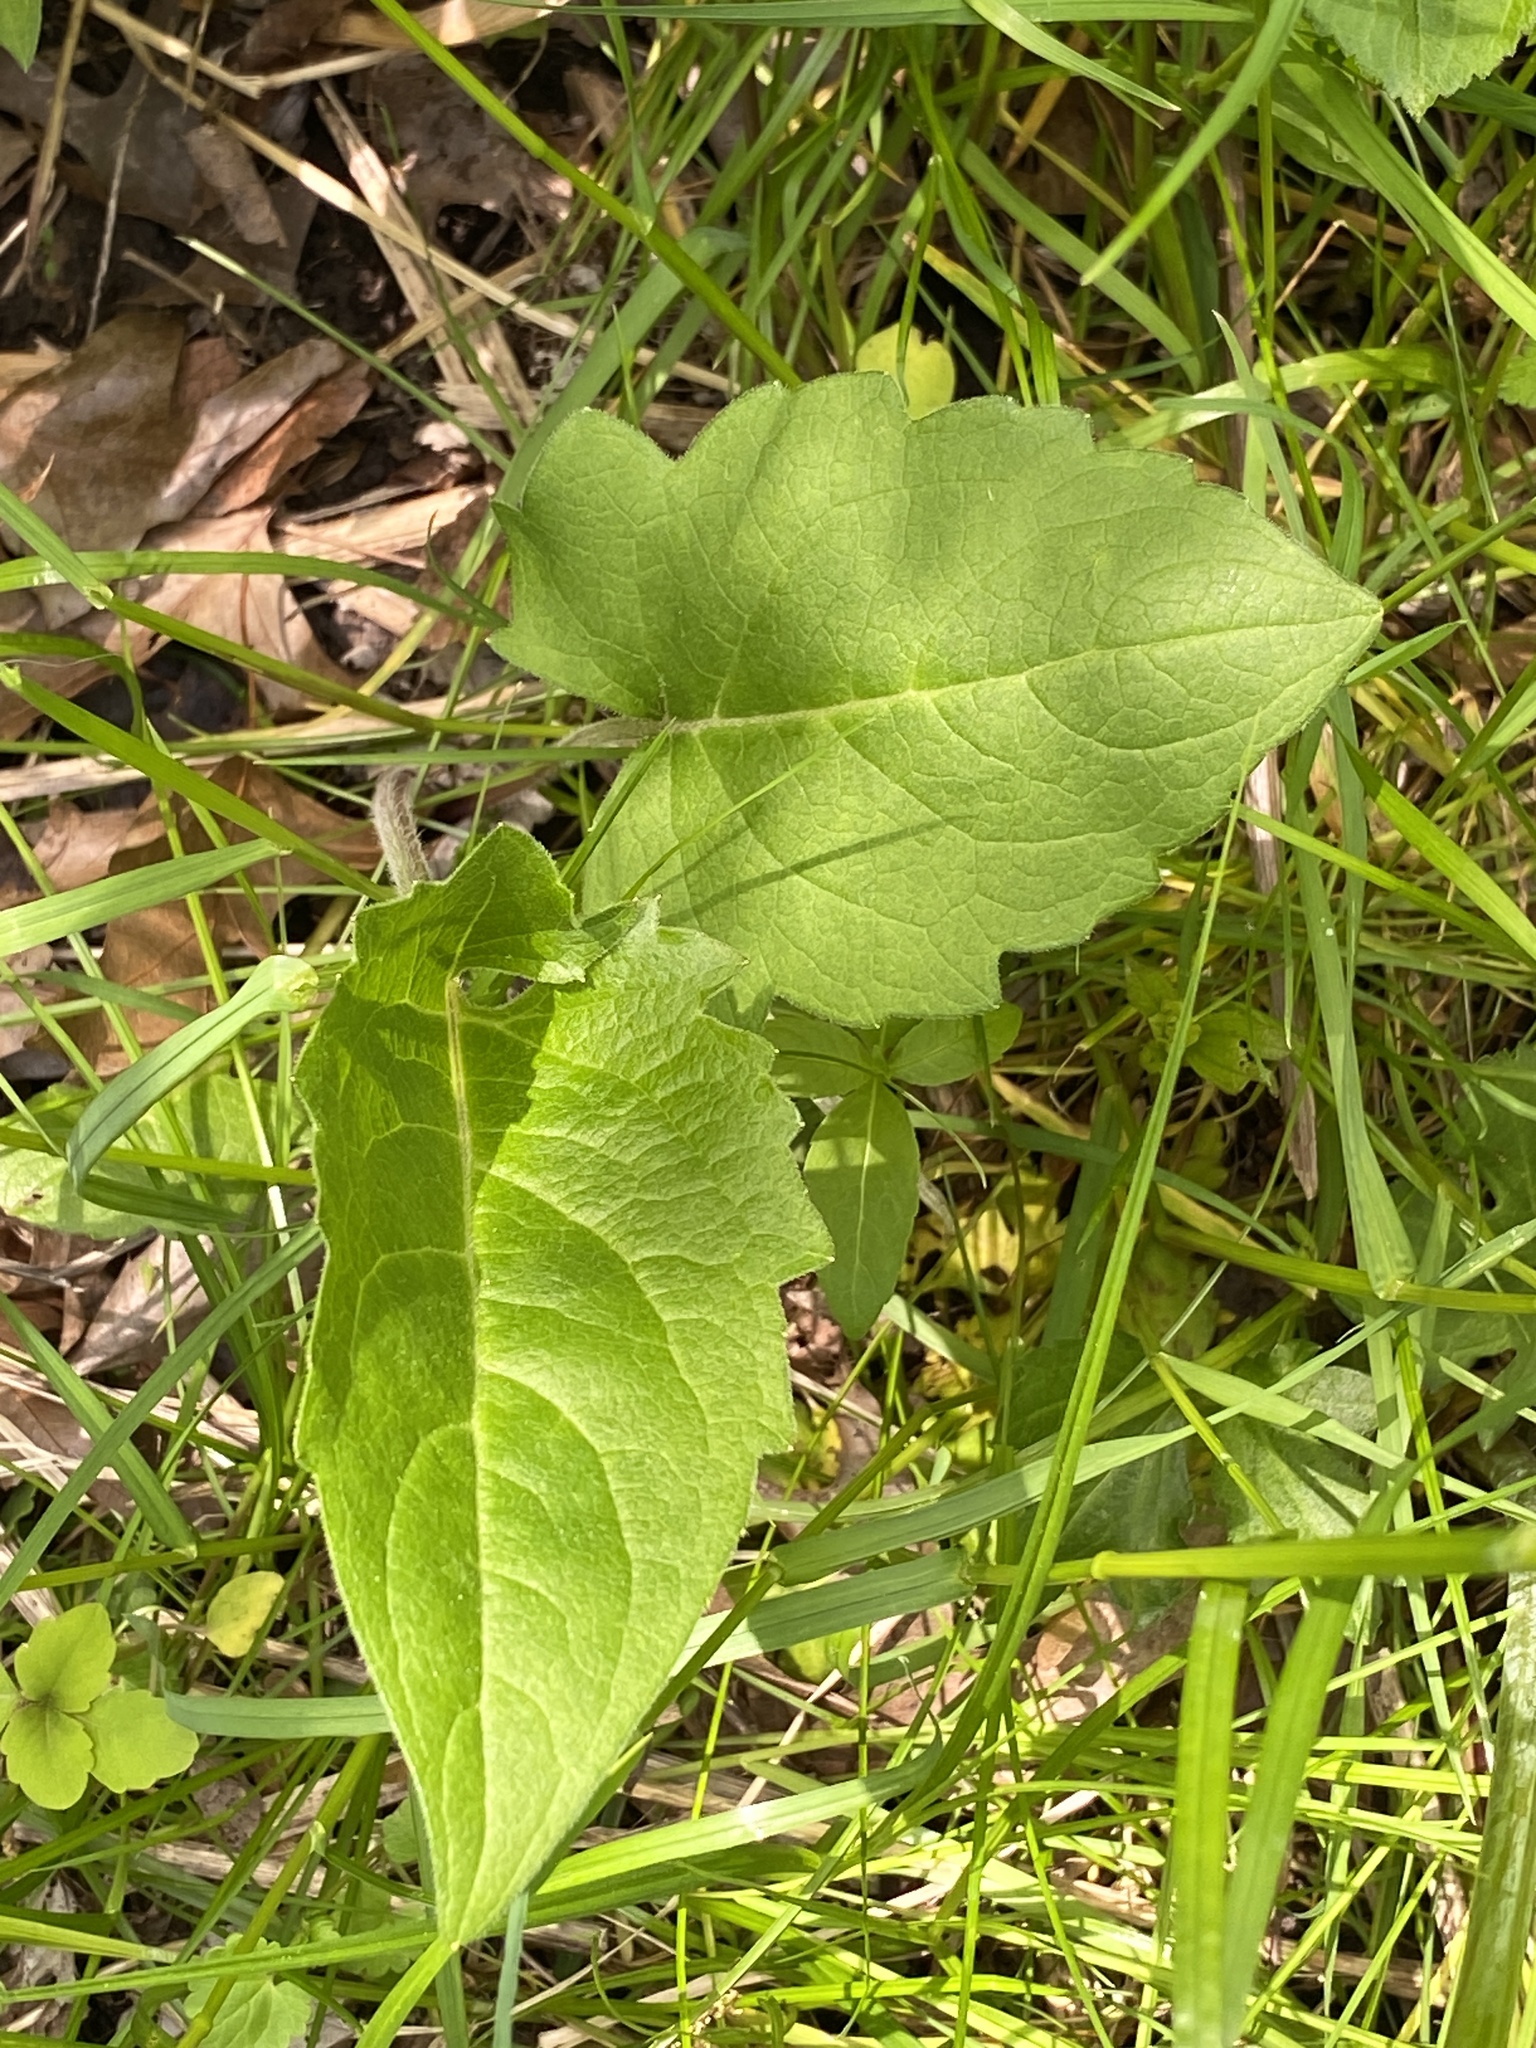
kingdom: Plantae
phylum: Tracheophyta
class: Magnoliopsida
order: Asterales
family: Asteraceae
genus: Silphium
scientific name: Silphium perfoliatum
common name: Cup-plant
